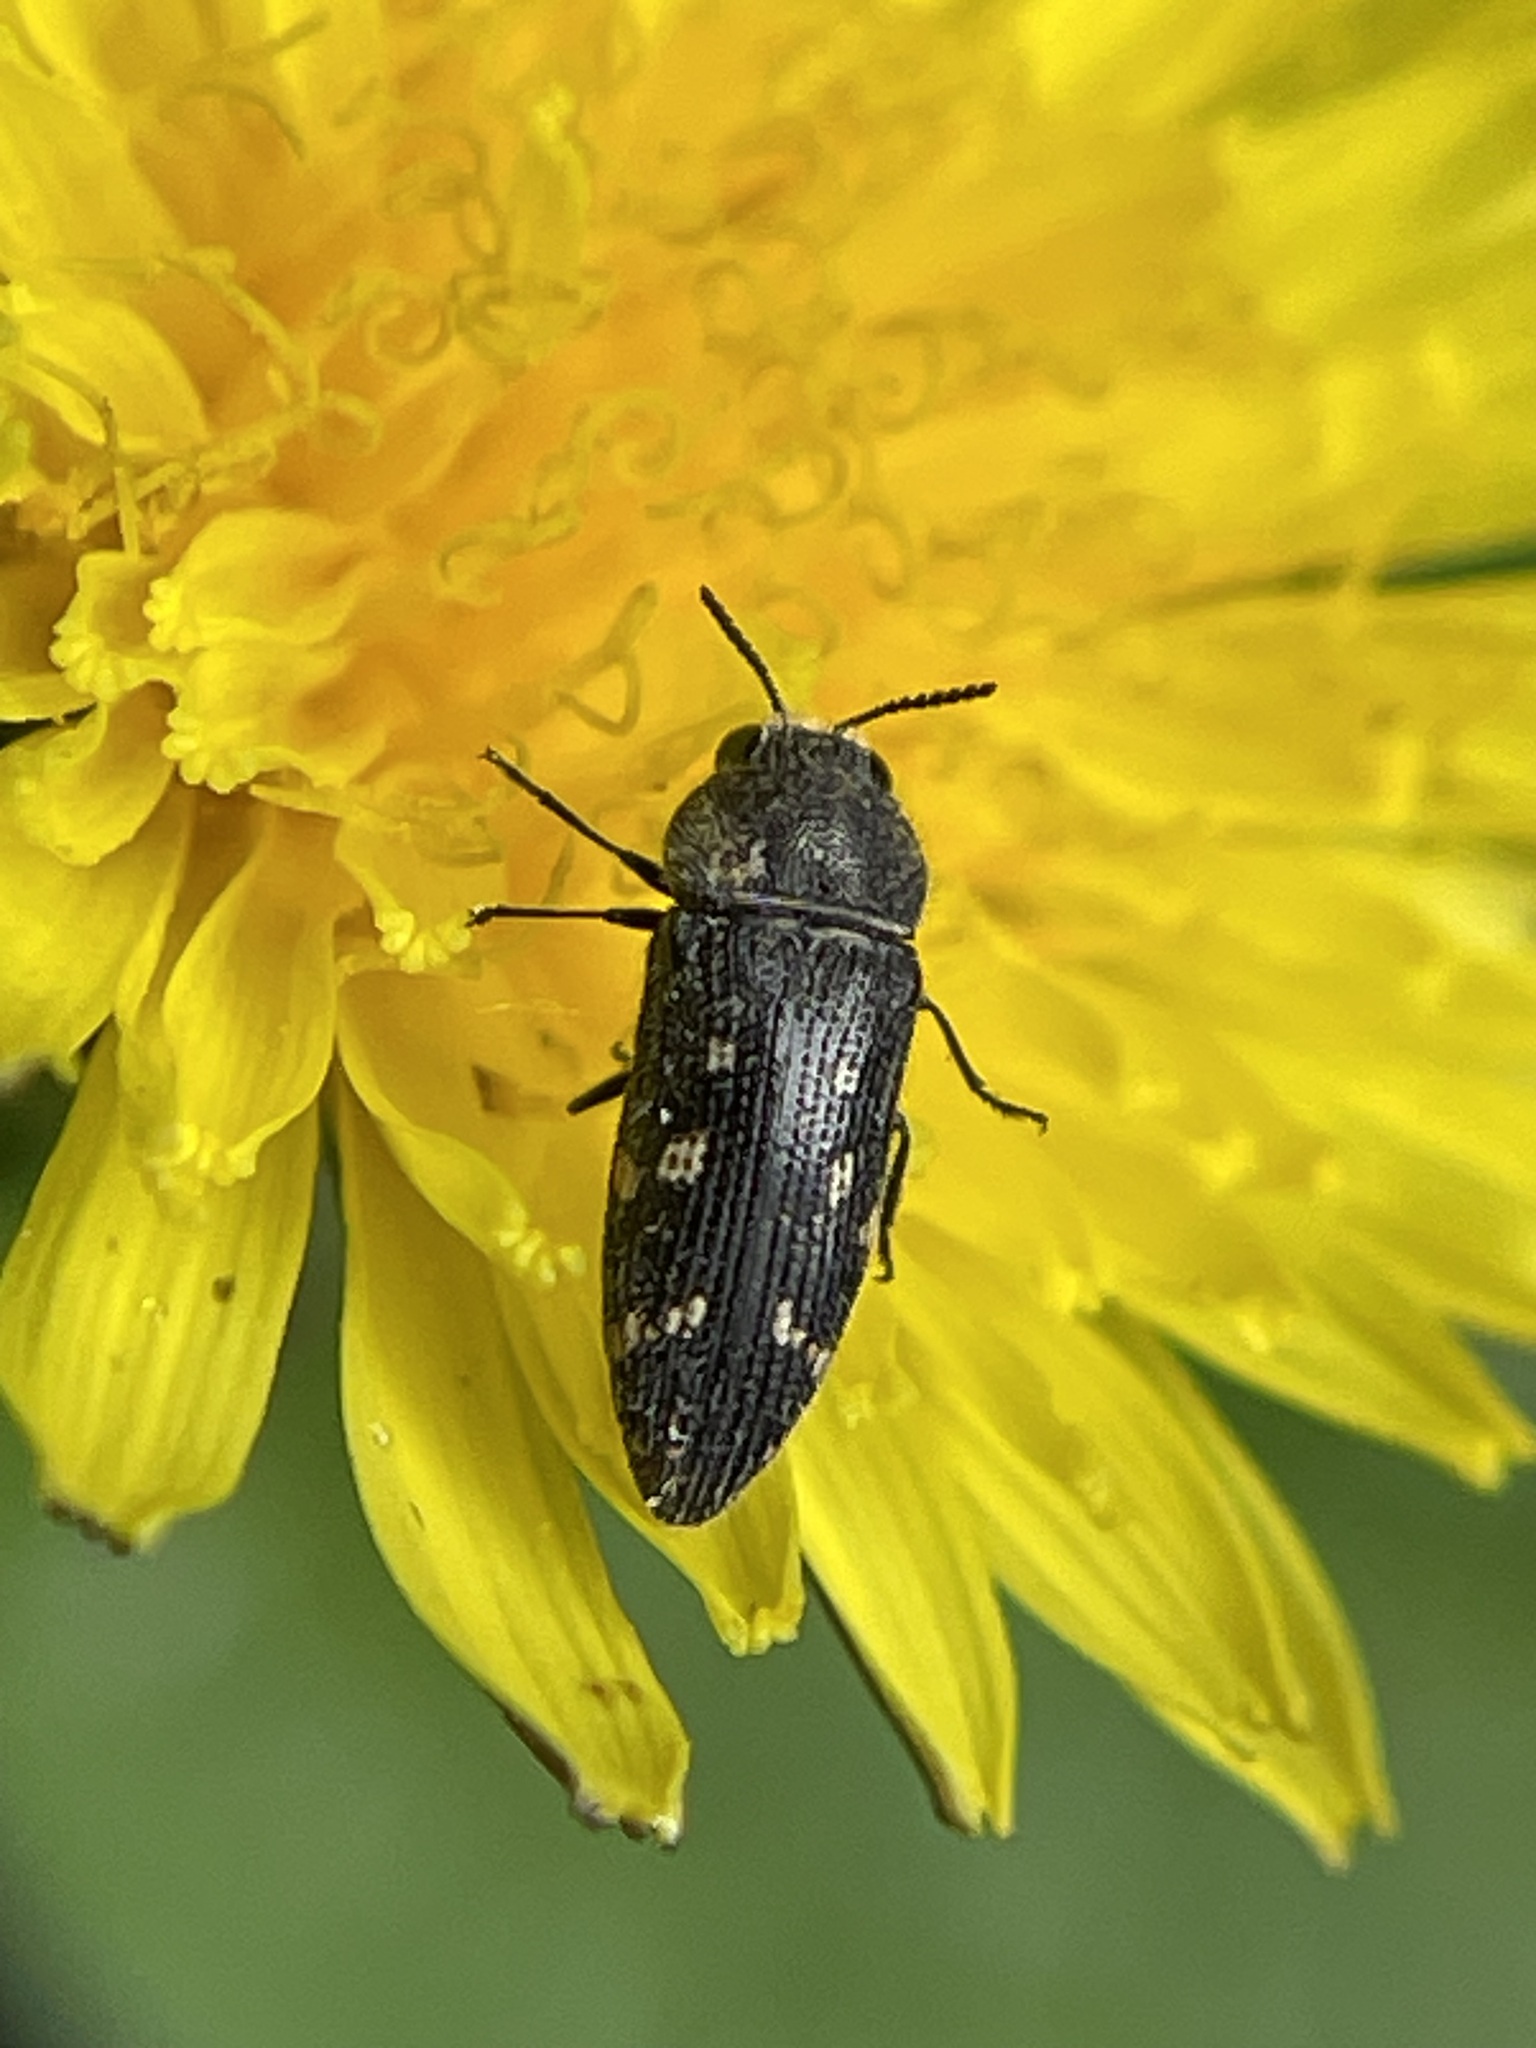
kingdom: Animalia
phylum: Arthropoda
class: Insecta
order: Coleoptera
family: Buprestidae
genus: Acmaeodera
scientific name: Acmaeodera tubulus
